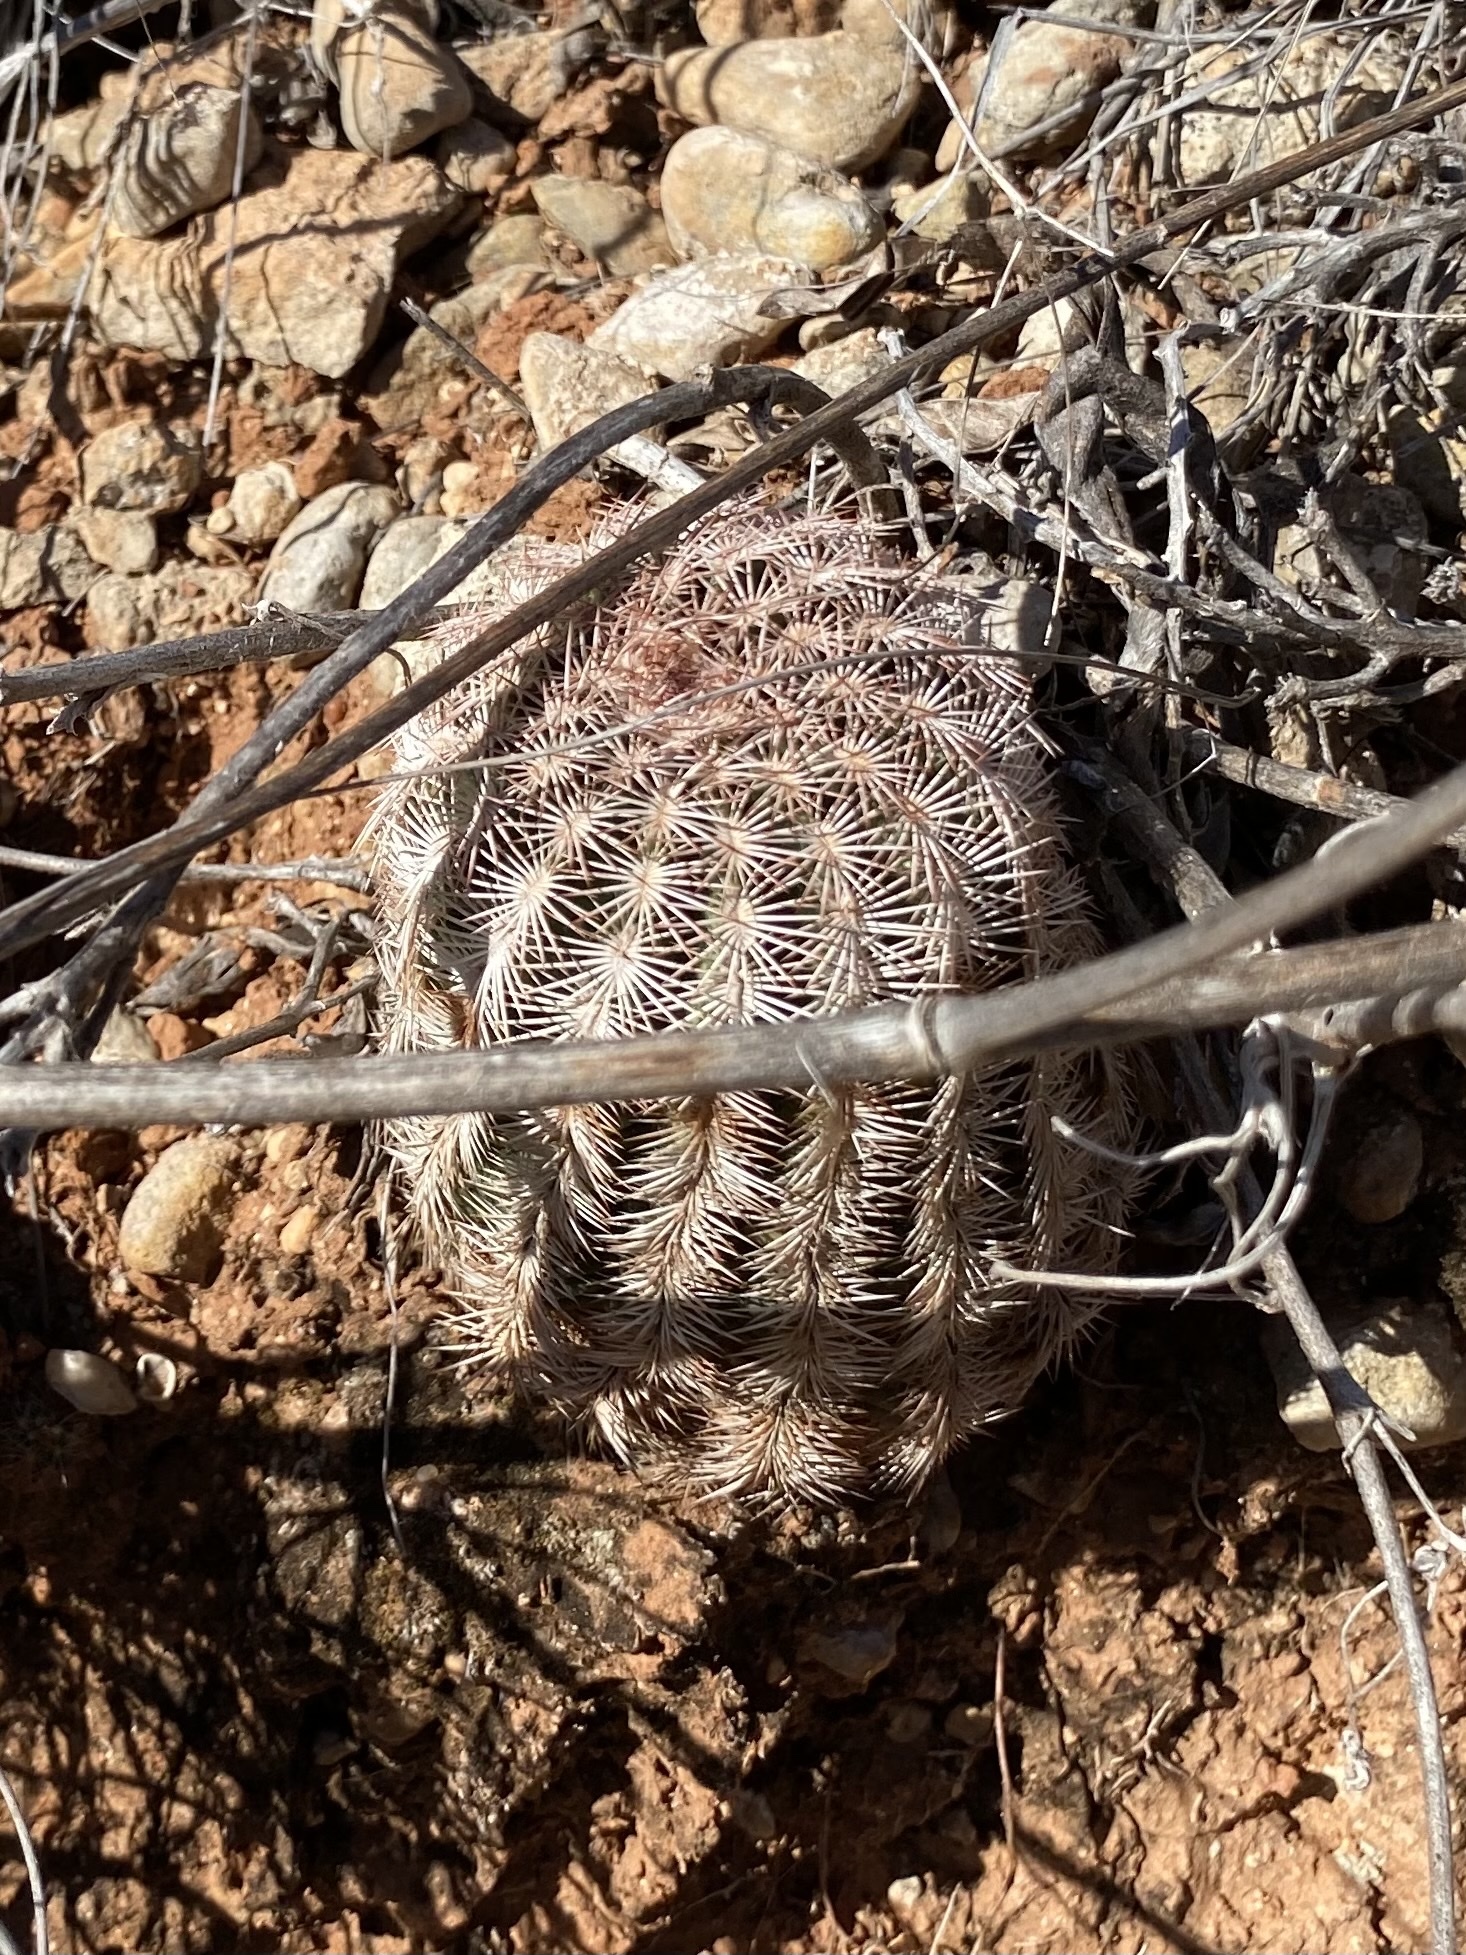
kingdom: Plantae
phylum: Tracheophyta
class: Magnoliopsida
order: Caryophyllales
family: Cactaceae
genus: Echinocereus
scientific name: Echinocereus reichenbachii
